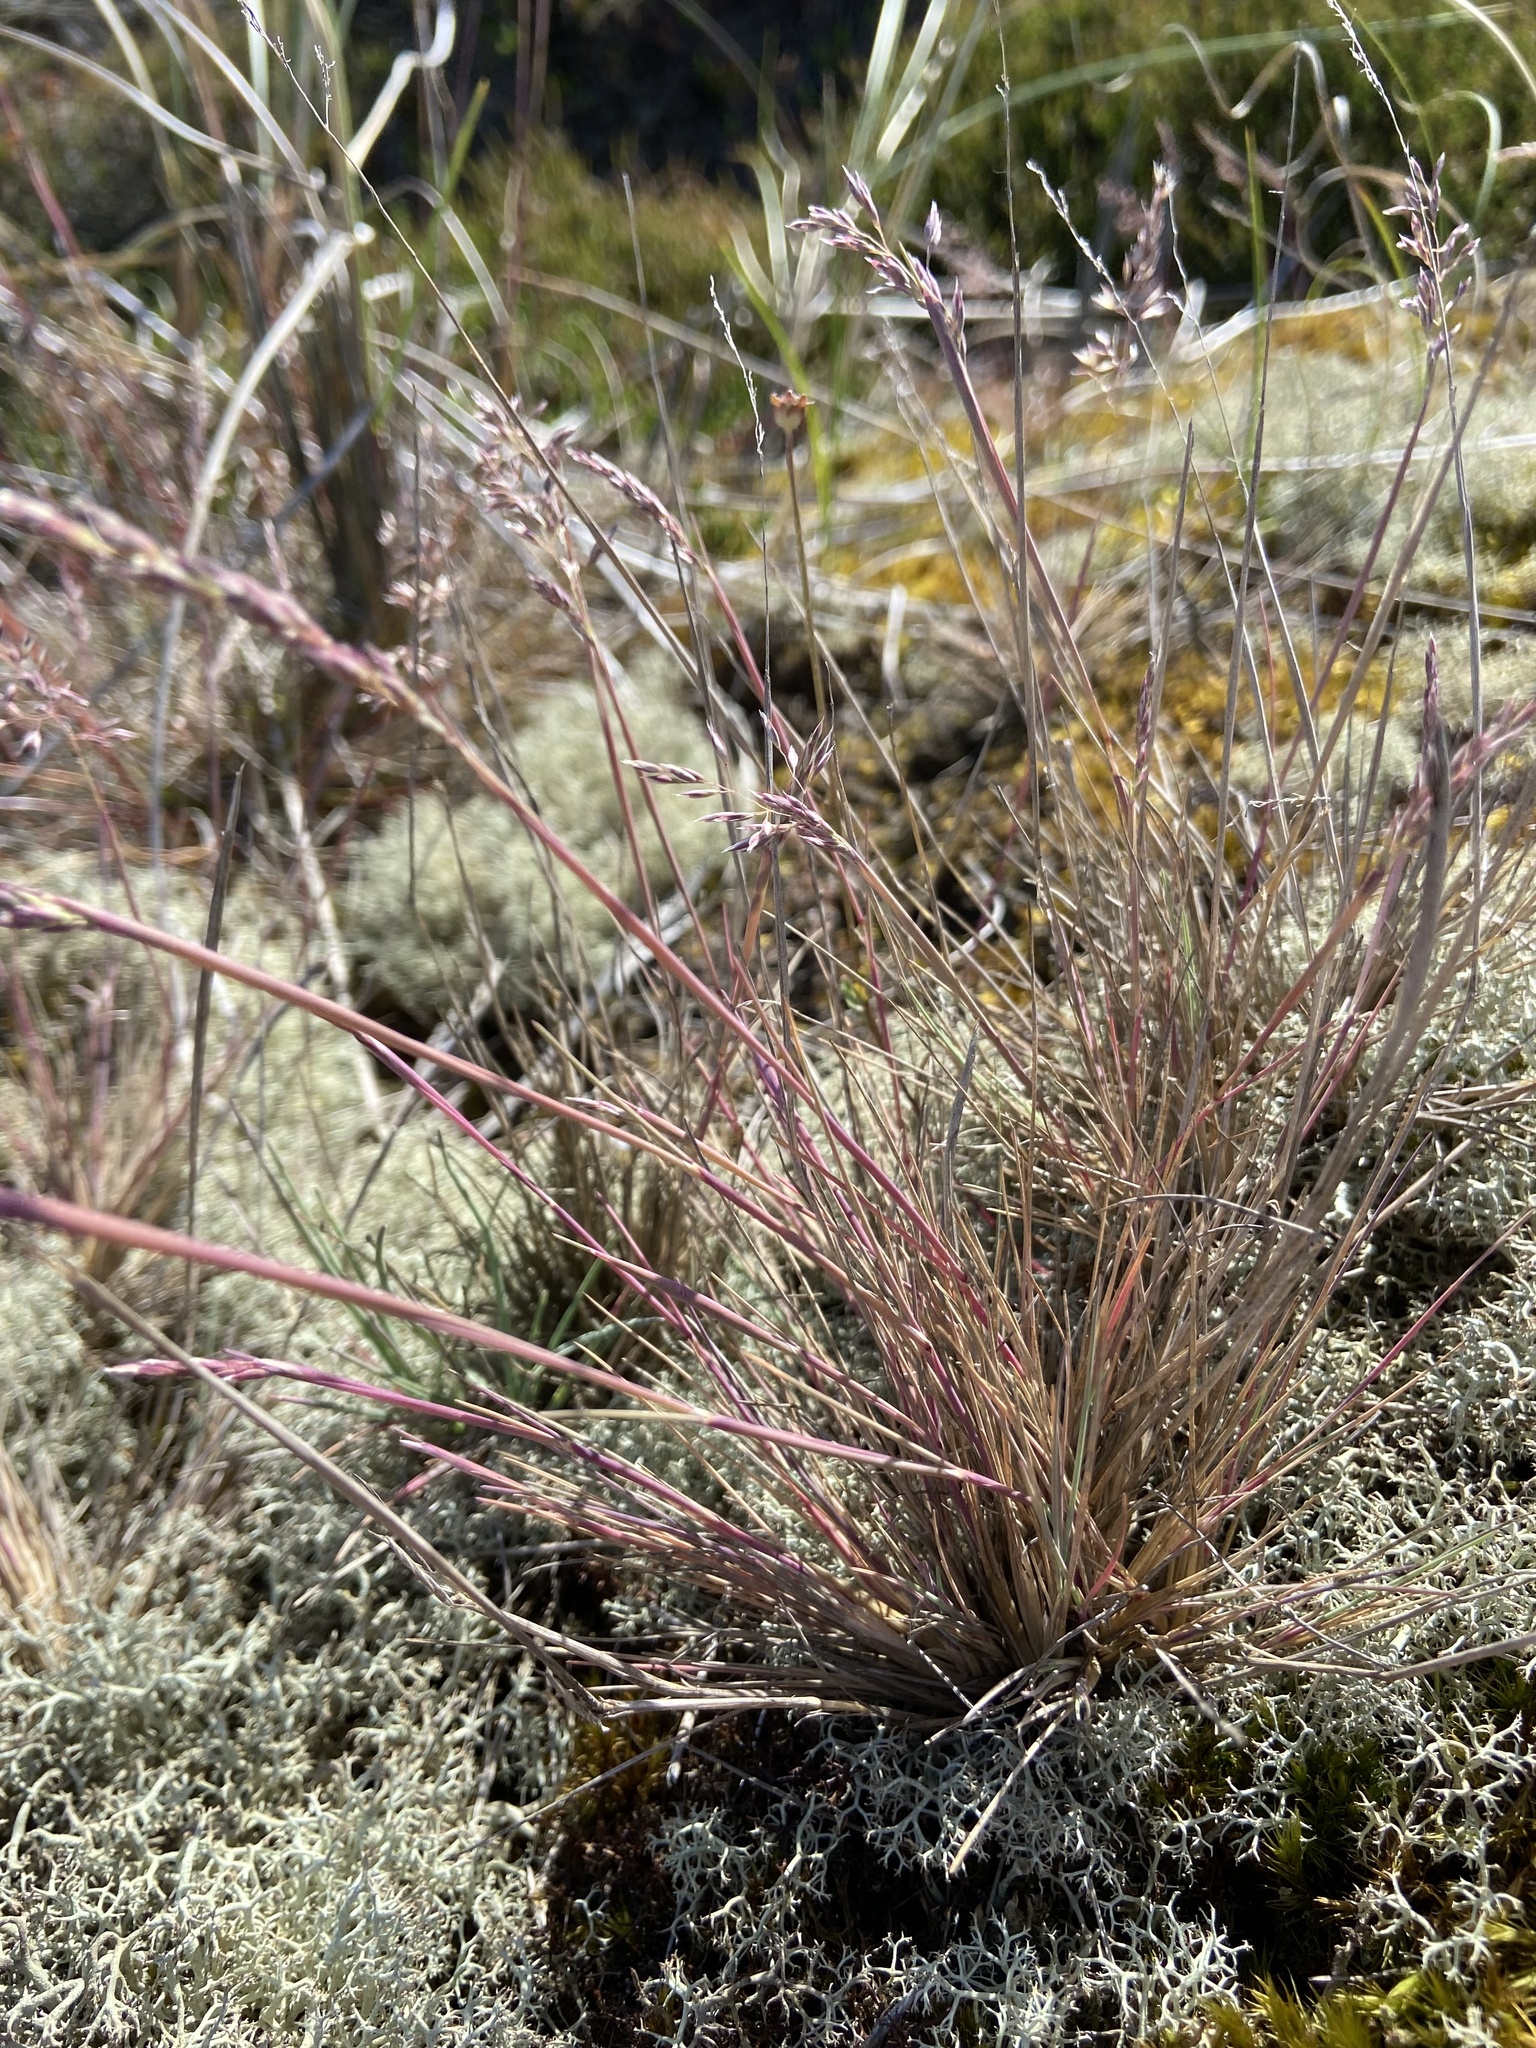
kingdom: Plantae
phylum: Tracheophyta
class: Liliopsida
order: Poales
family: Poaceae
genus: Corynephorus
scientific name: Corynephorus canescens
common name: Grey hair-grass
